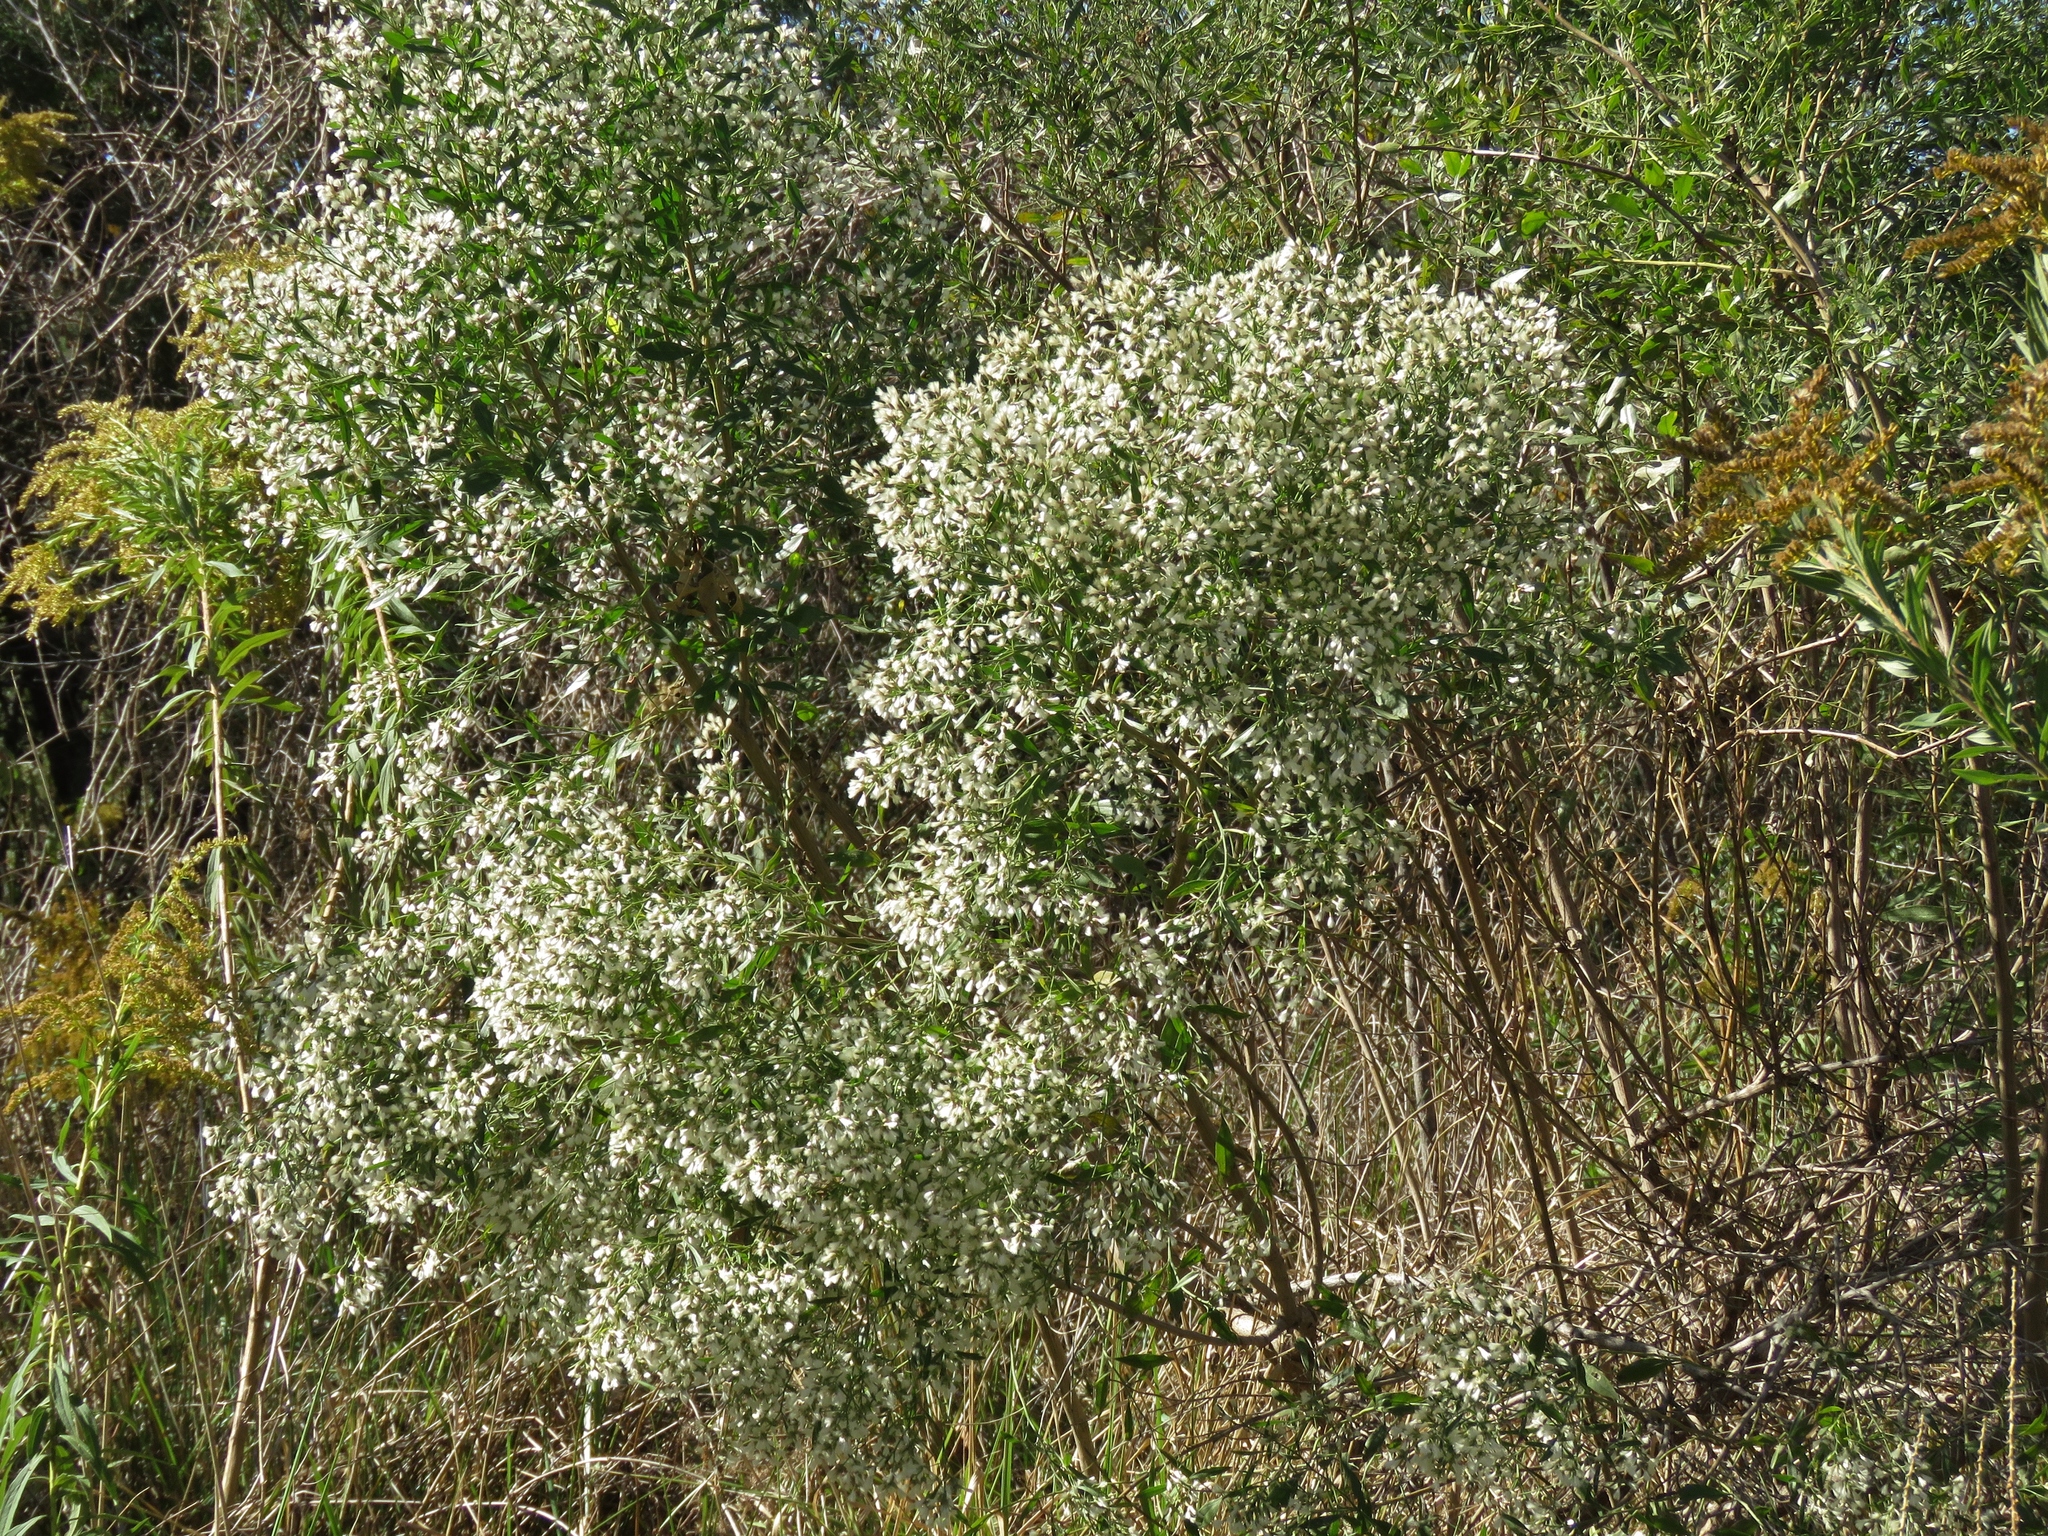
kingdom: Plantae
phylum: Tracheophyta
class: Magnoliopsida
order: Asterales
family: Asteraceae
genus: Baccharis
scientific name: Baccharis halimifolia
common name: Eastern baccharis
